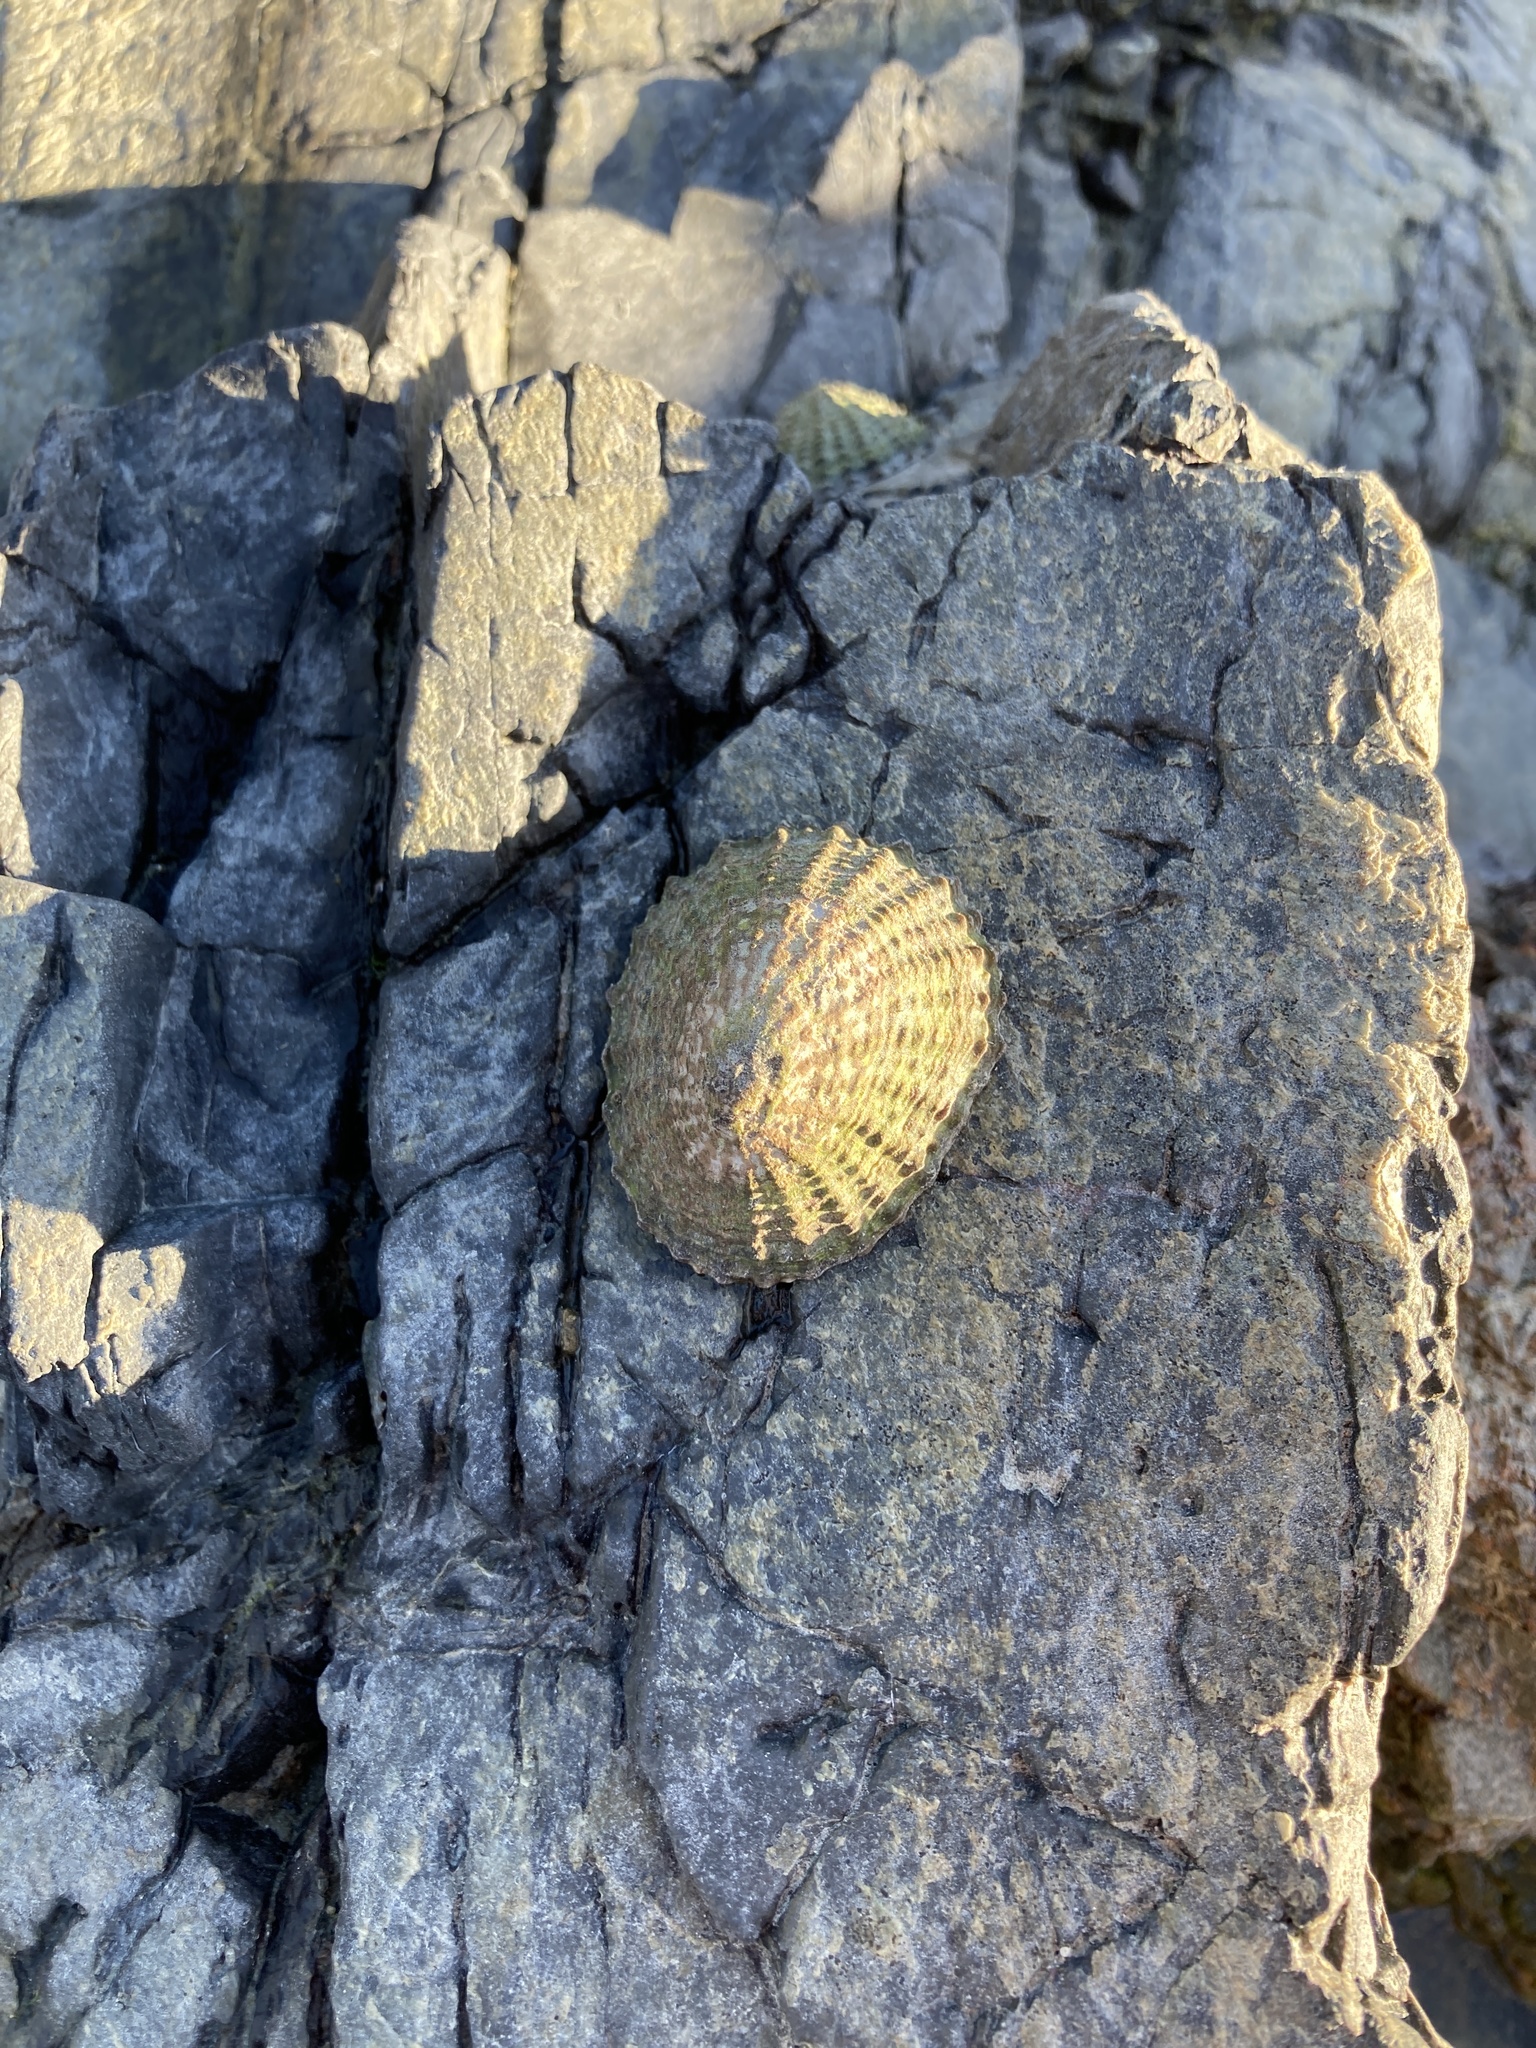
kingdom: Animalia
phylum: Mollusca
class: Gastropoda
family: Nacellidae
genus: Cellana
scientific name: Cellana denticulata
